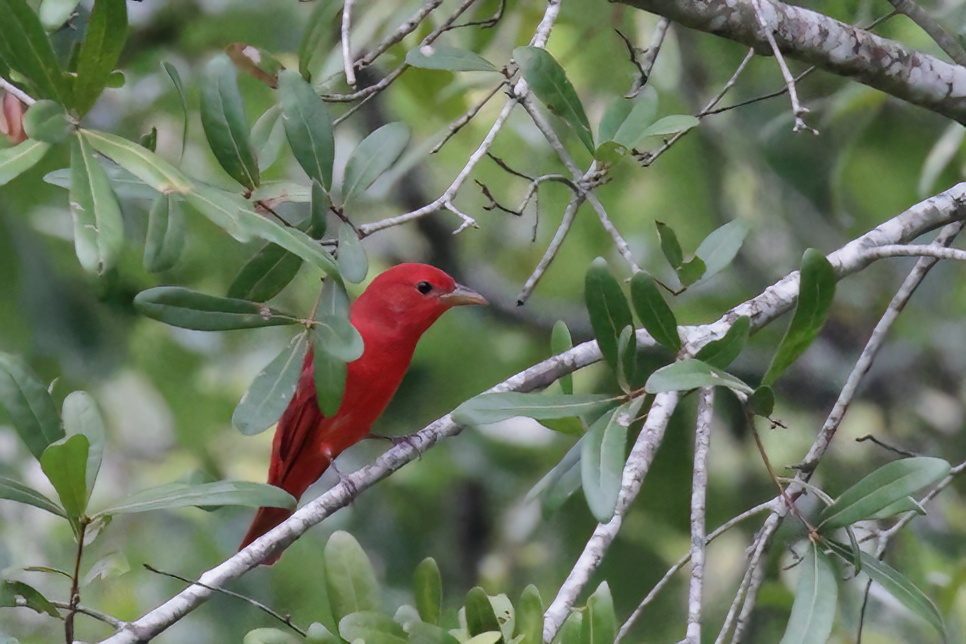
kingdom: Animalia
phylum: Chordata
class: Aves
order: Passeriformes
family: Cardinalidae
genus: Piranga
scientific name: Piranga rubra
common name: Summer tanager
